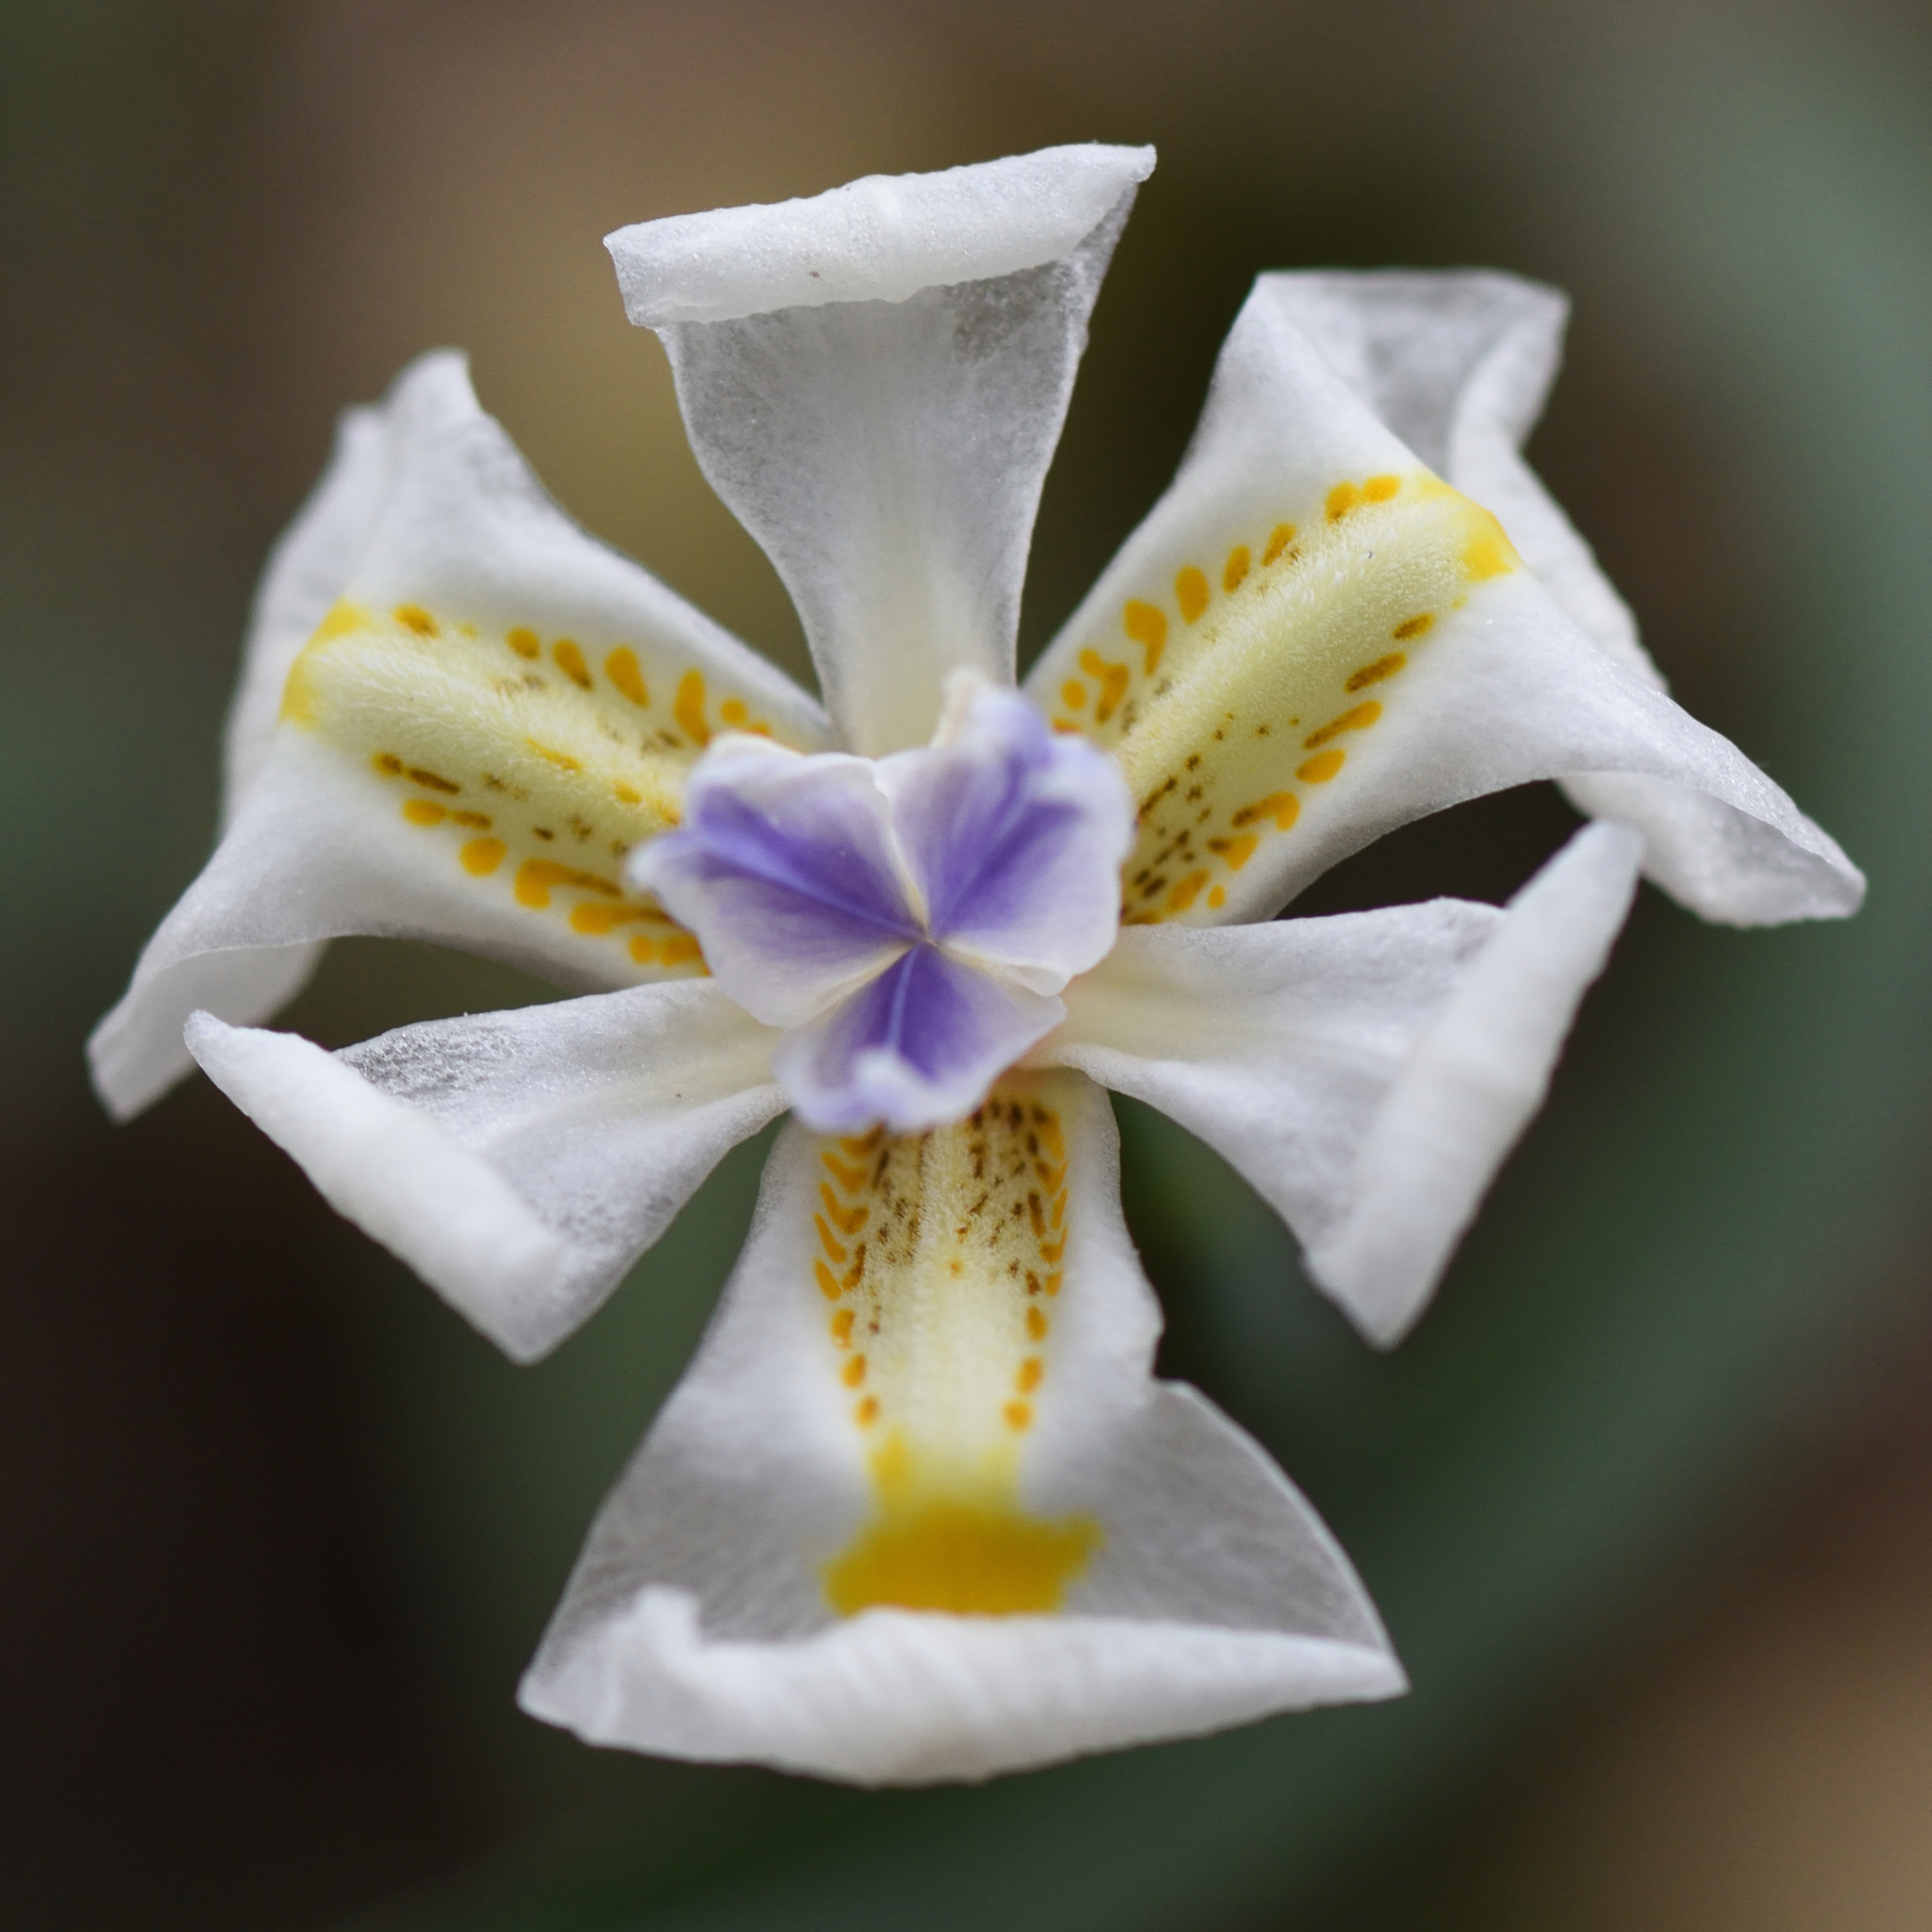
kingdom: Plantae
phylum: Tracheophyta
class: Liliopsida
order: Asparagales
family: Iridaceae
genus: Dietes
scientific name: Dietes iridioides
